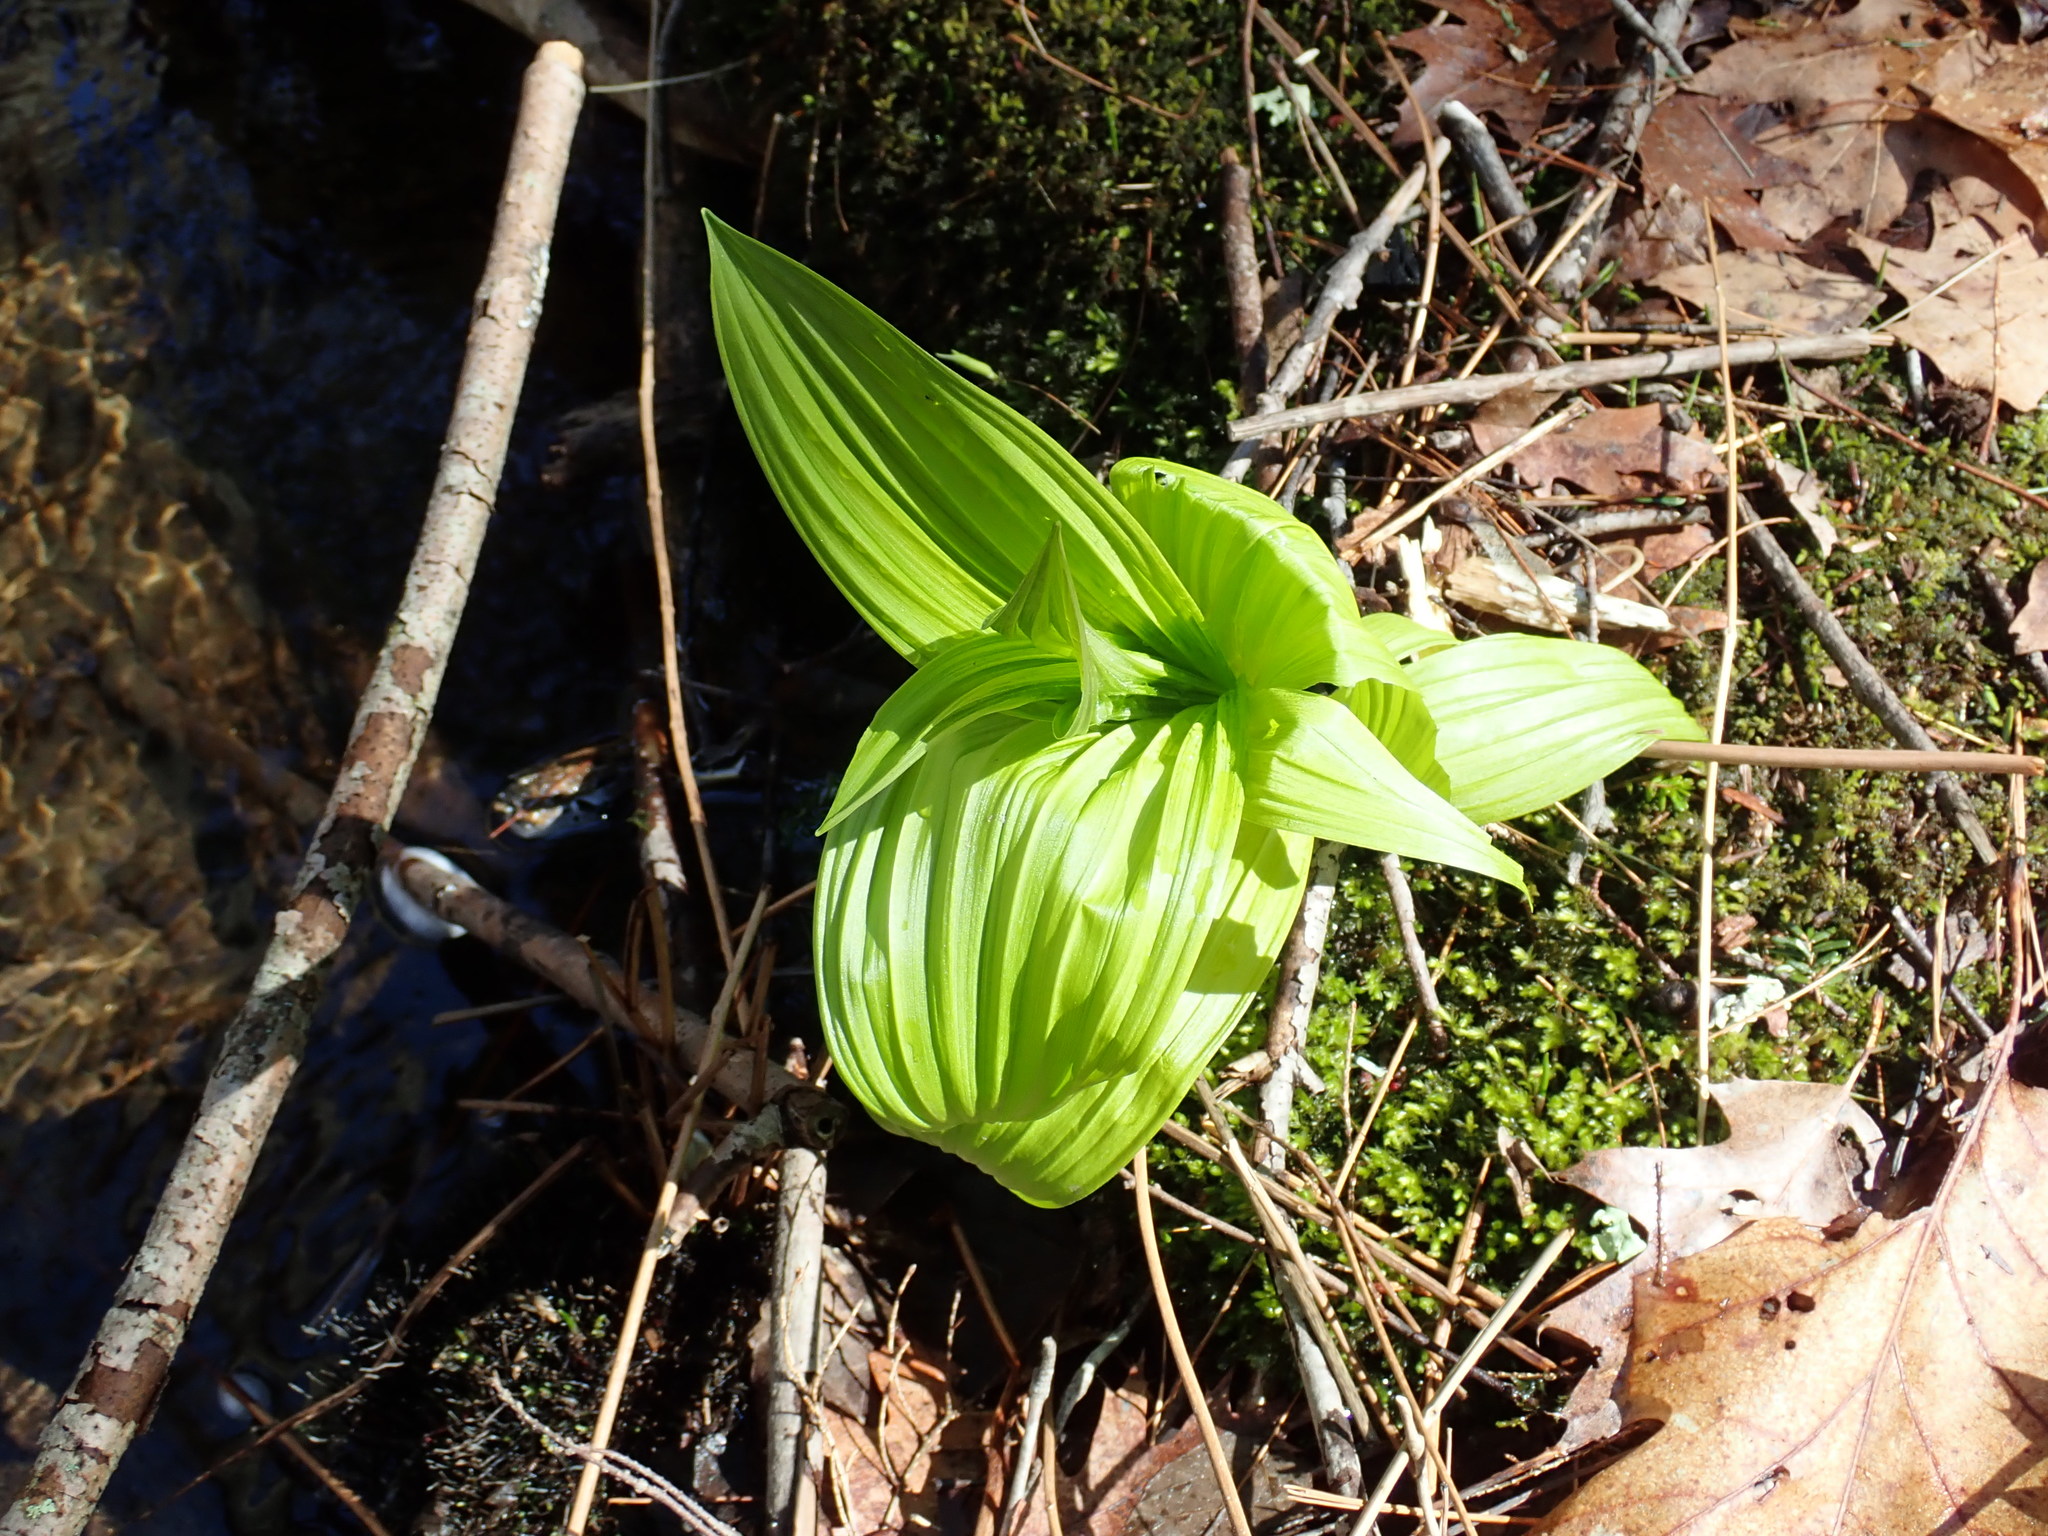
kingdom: Plantae
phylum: Tracheophyta
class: Liliopsida
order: Liliales
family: Melanthiaceae
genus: Veratrum
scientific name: Veratrum viride
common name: American false hellebore
